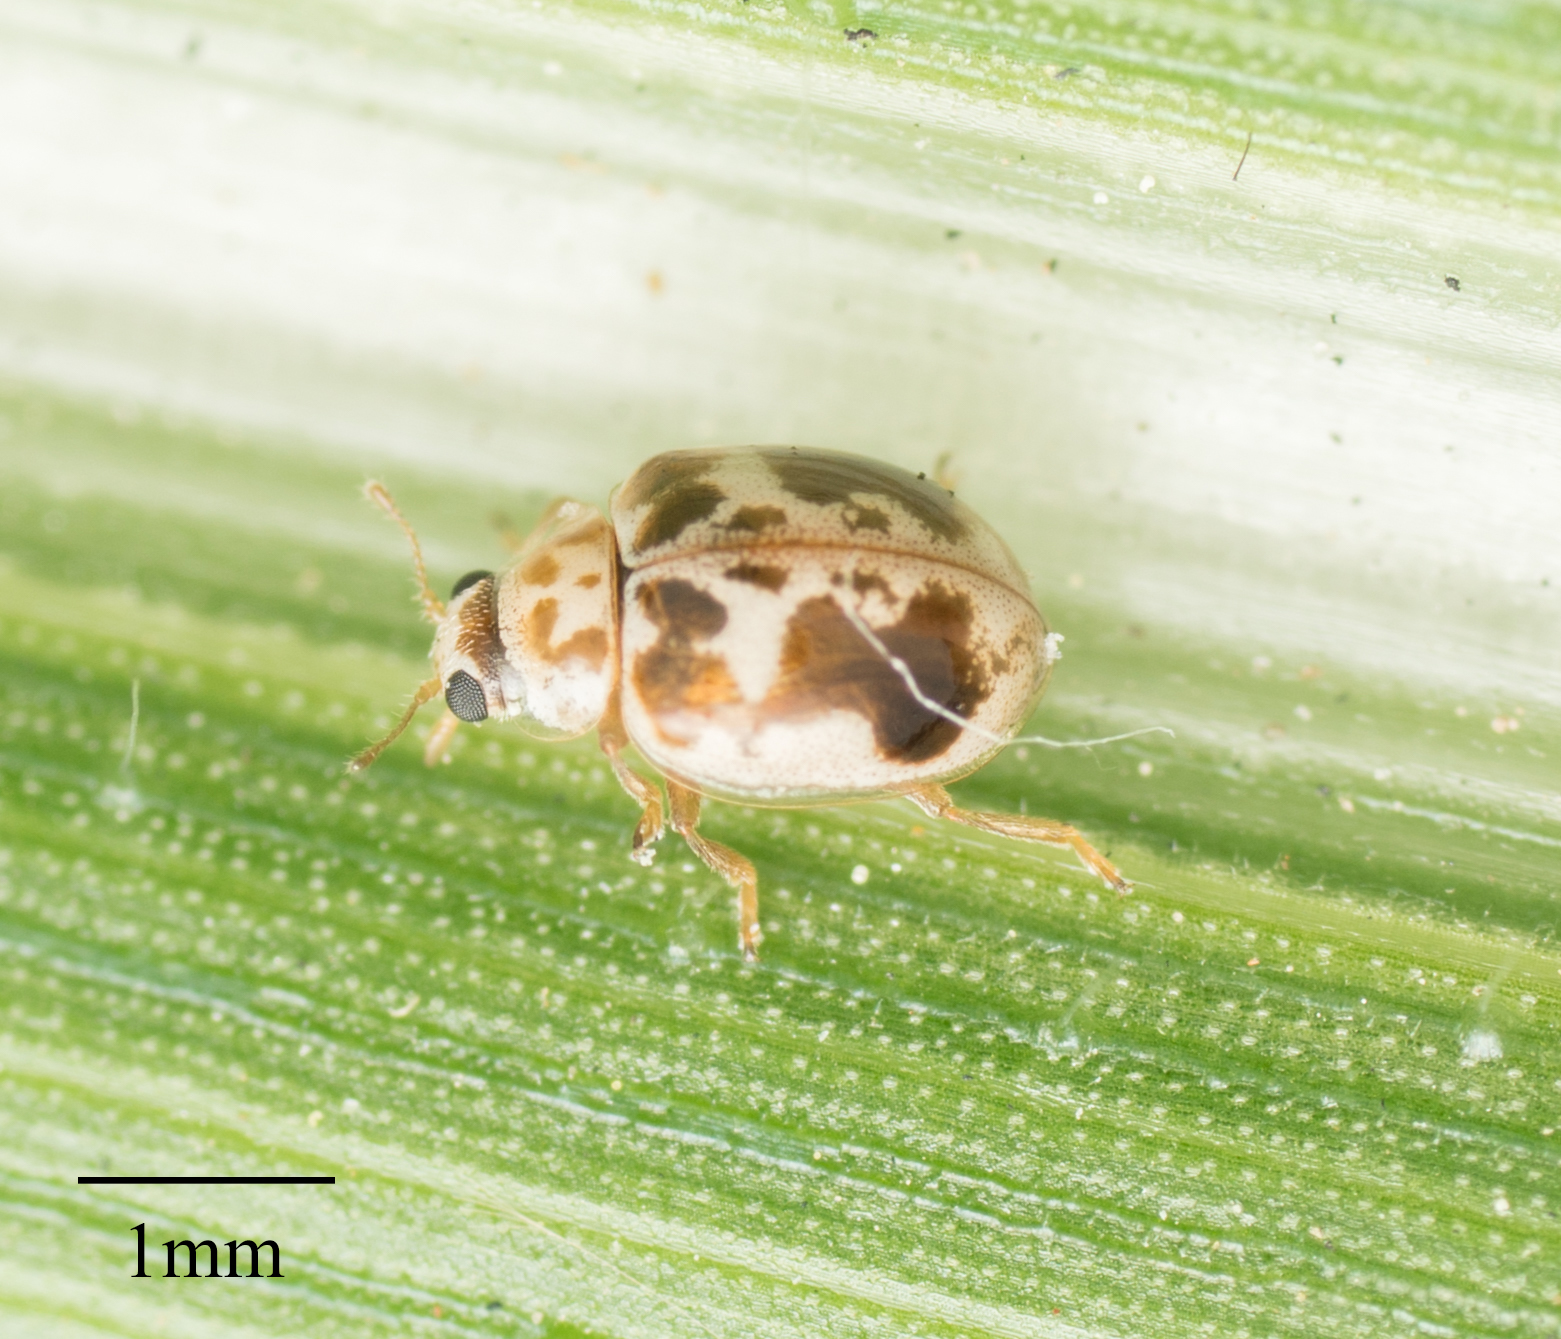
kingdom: Animalia
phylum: Arthropoda
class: Insecta
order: Coleoptera
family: Coccinellidae
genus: Psyllobora
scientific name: Psyllobora renifer
